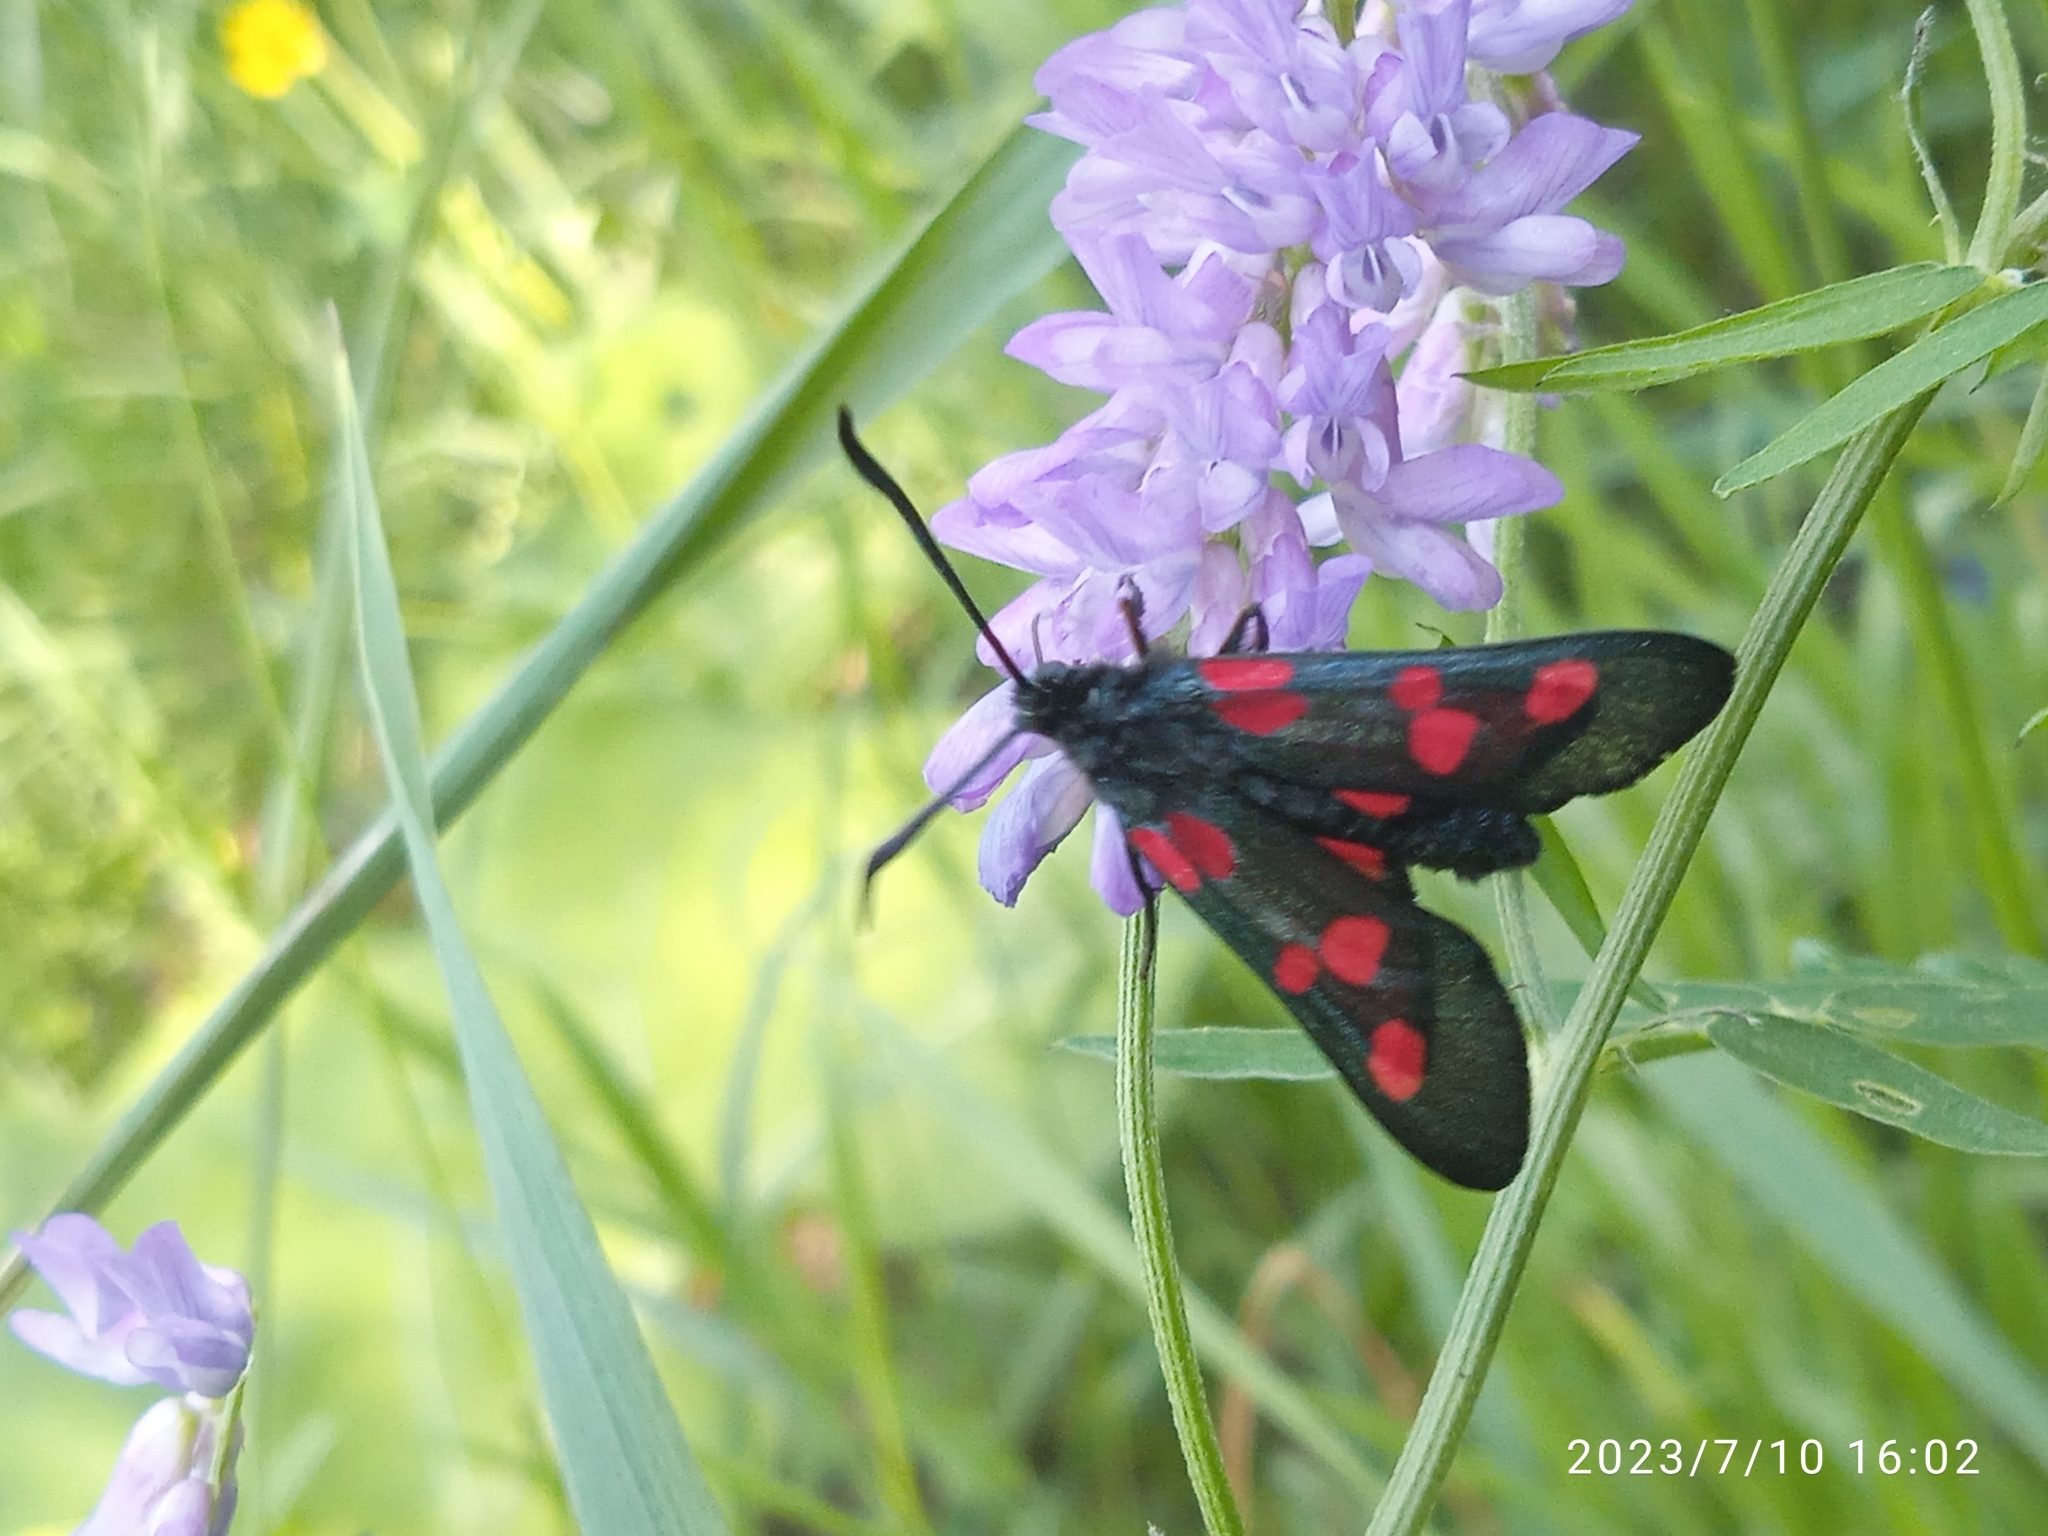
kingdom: Animalia
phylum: Arthropoda
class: Insecta
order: Lepidoptera
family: Zygaenidae
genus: Zygaena
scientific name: Zygaena lonicerae
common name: Narrow-bordered five-spot burnet
